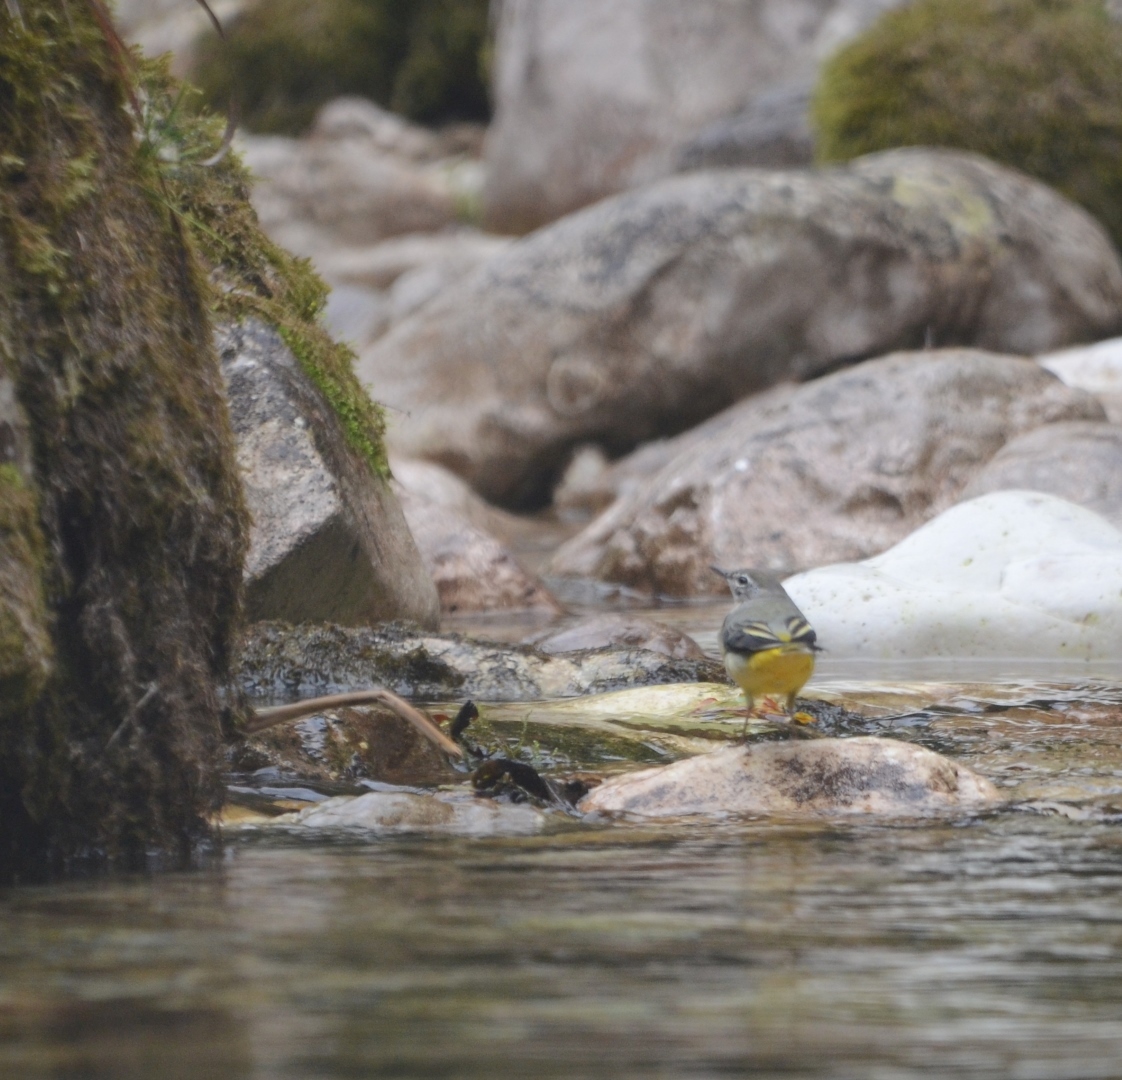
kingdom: Animalia
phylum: Chordata
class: Aves
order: Passeriformes
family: Motacillidae
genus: Motacilla
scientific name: Motacilla cinerea
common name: Grey wagtail
